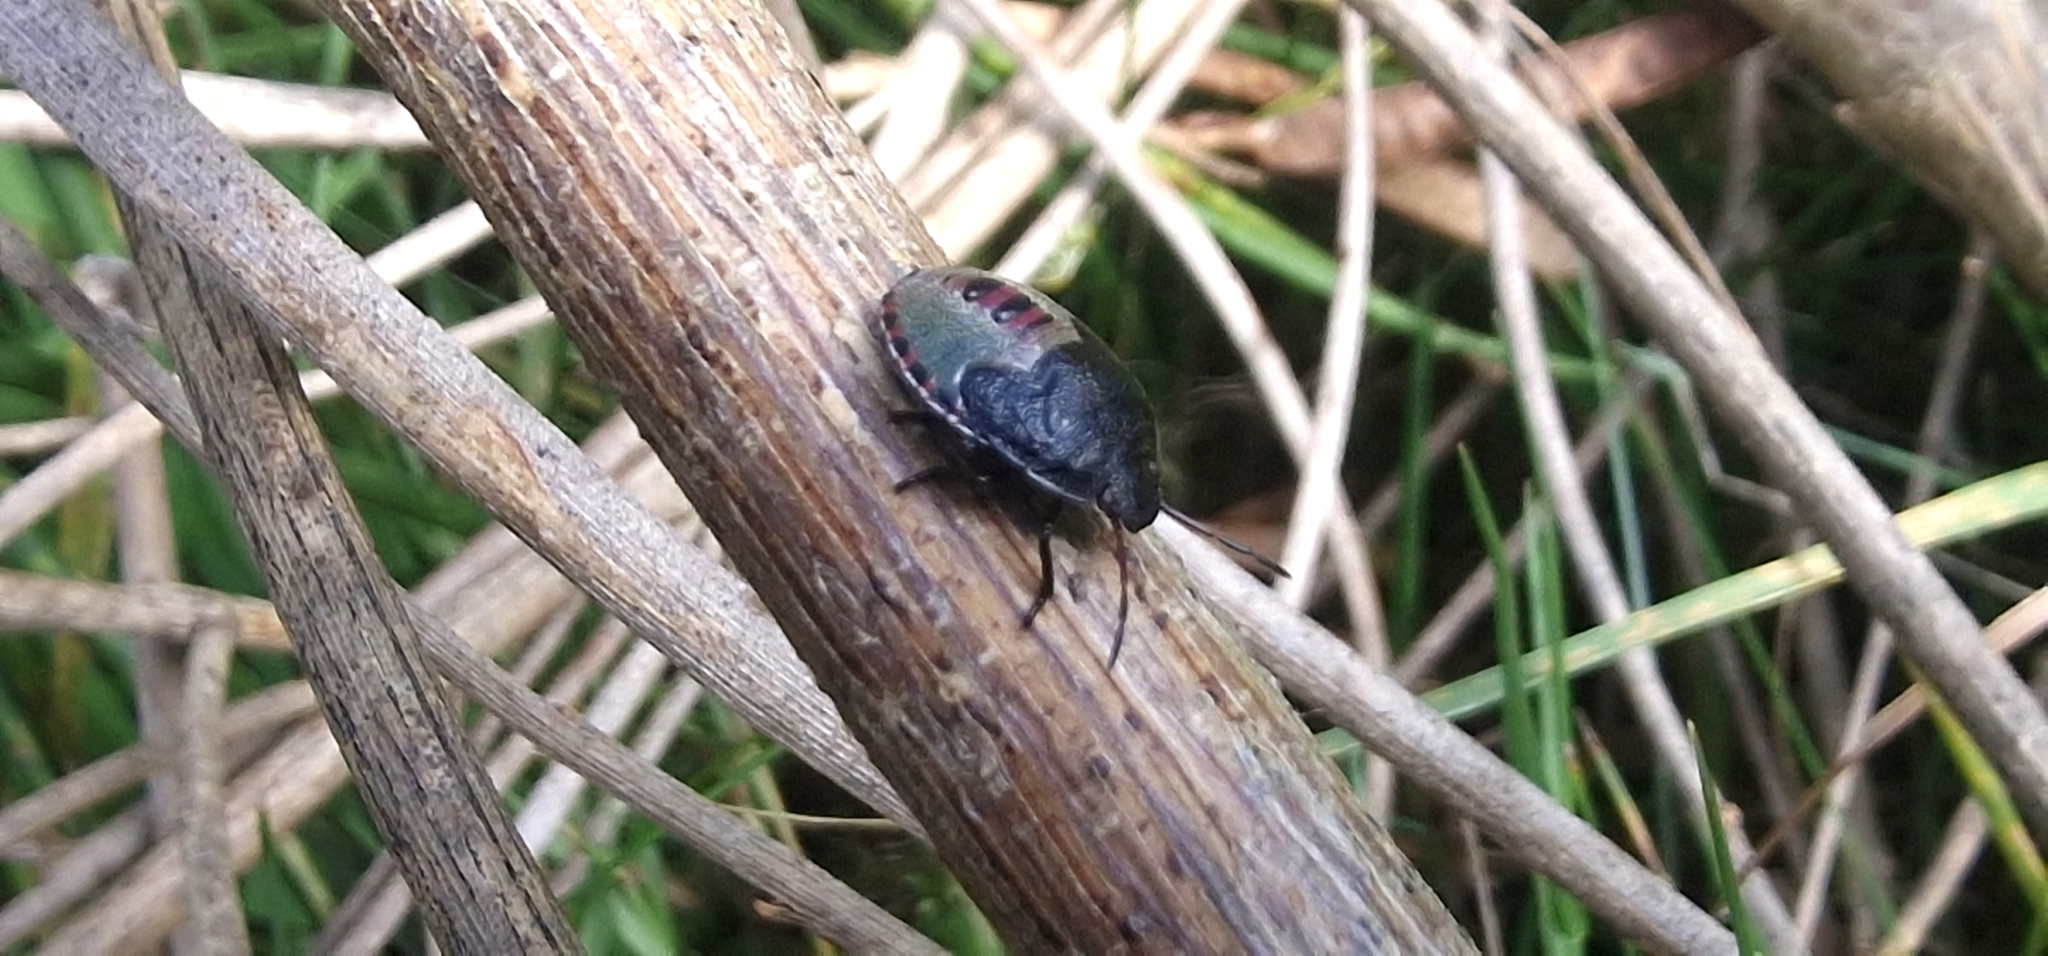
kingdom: Animalia
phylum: Arthropoda
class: Insecta
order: Hemiptera
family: Pentatomidae
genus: Piezodorus
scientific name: Piezodorus lituratus
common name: Stink bug
